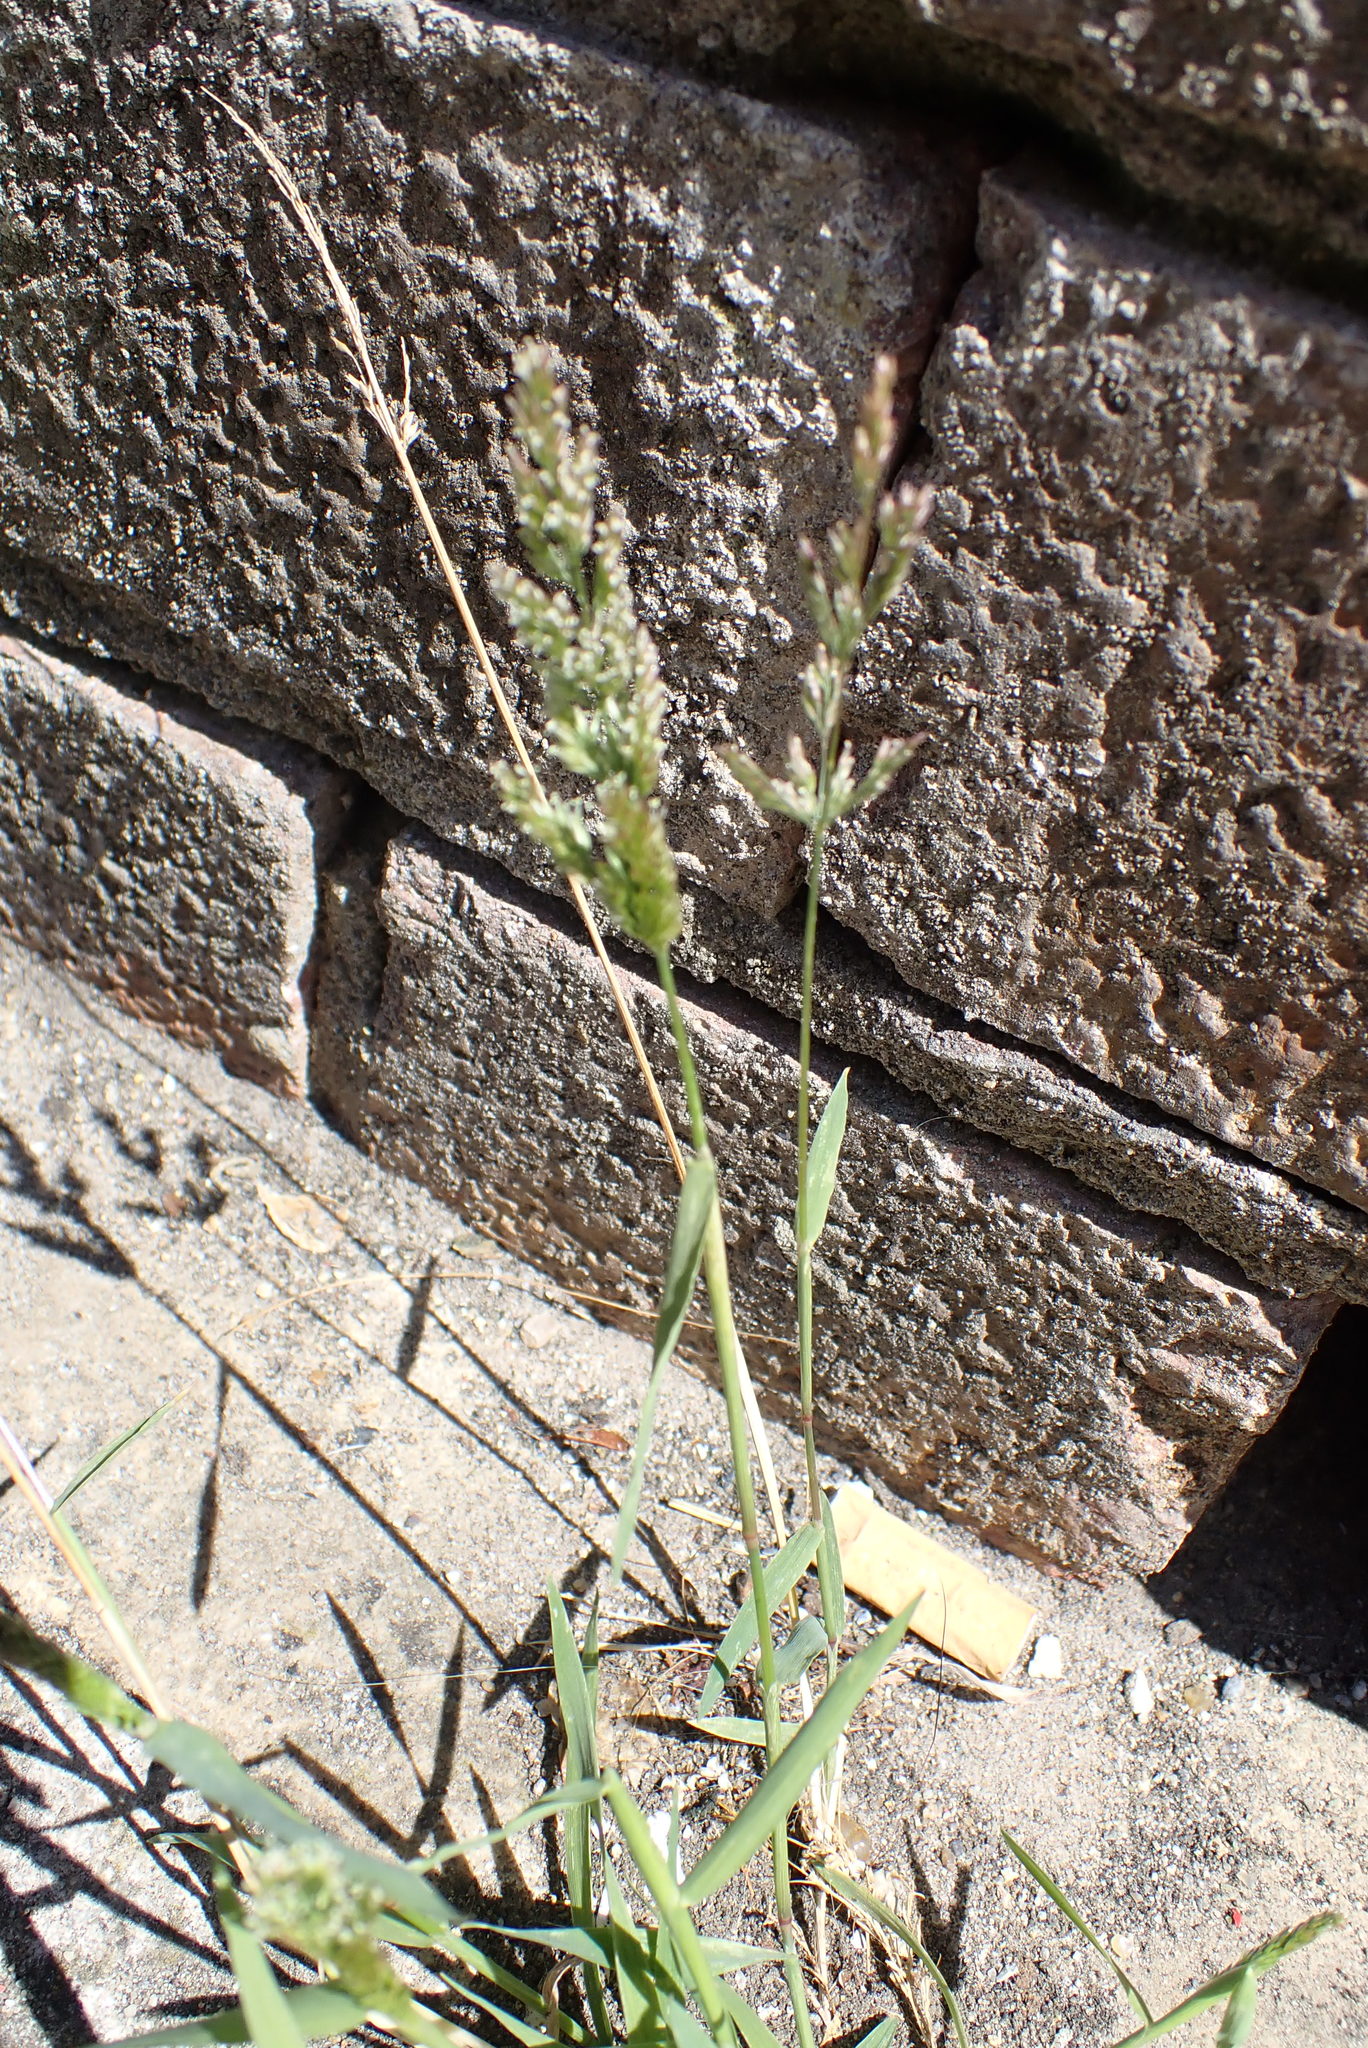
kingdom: Plantae
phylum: Tracheophyta
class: Liliopsida
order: Poales
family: Poaceae
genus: Polypogon
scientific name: Polypogon viridis
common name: Water bent
